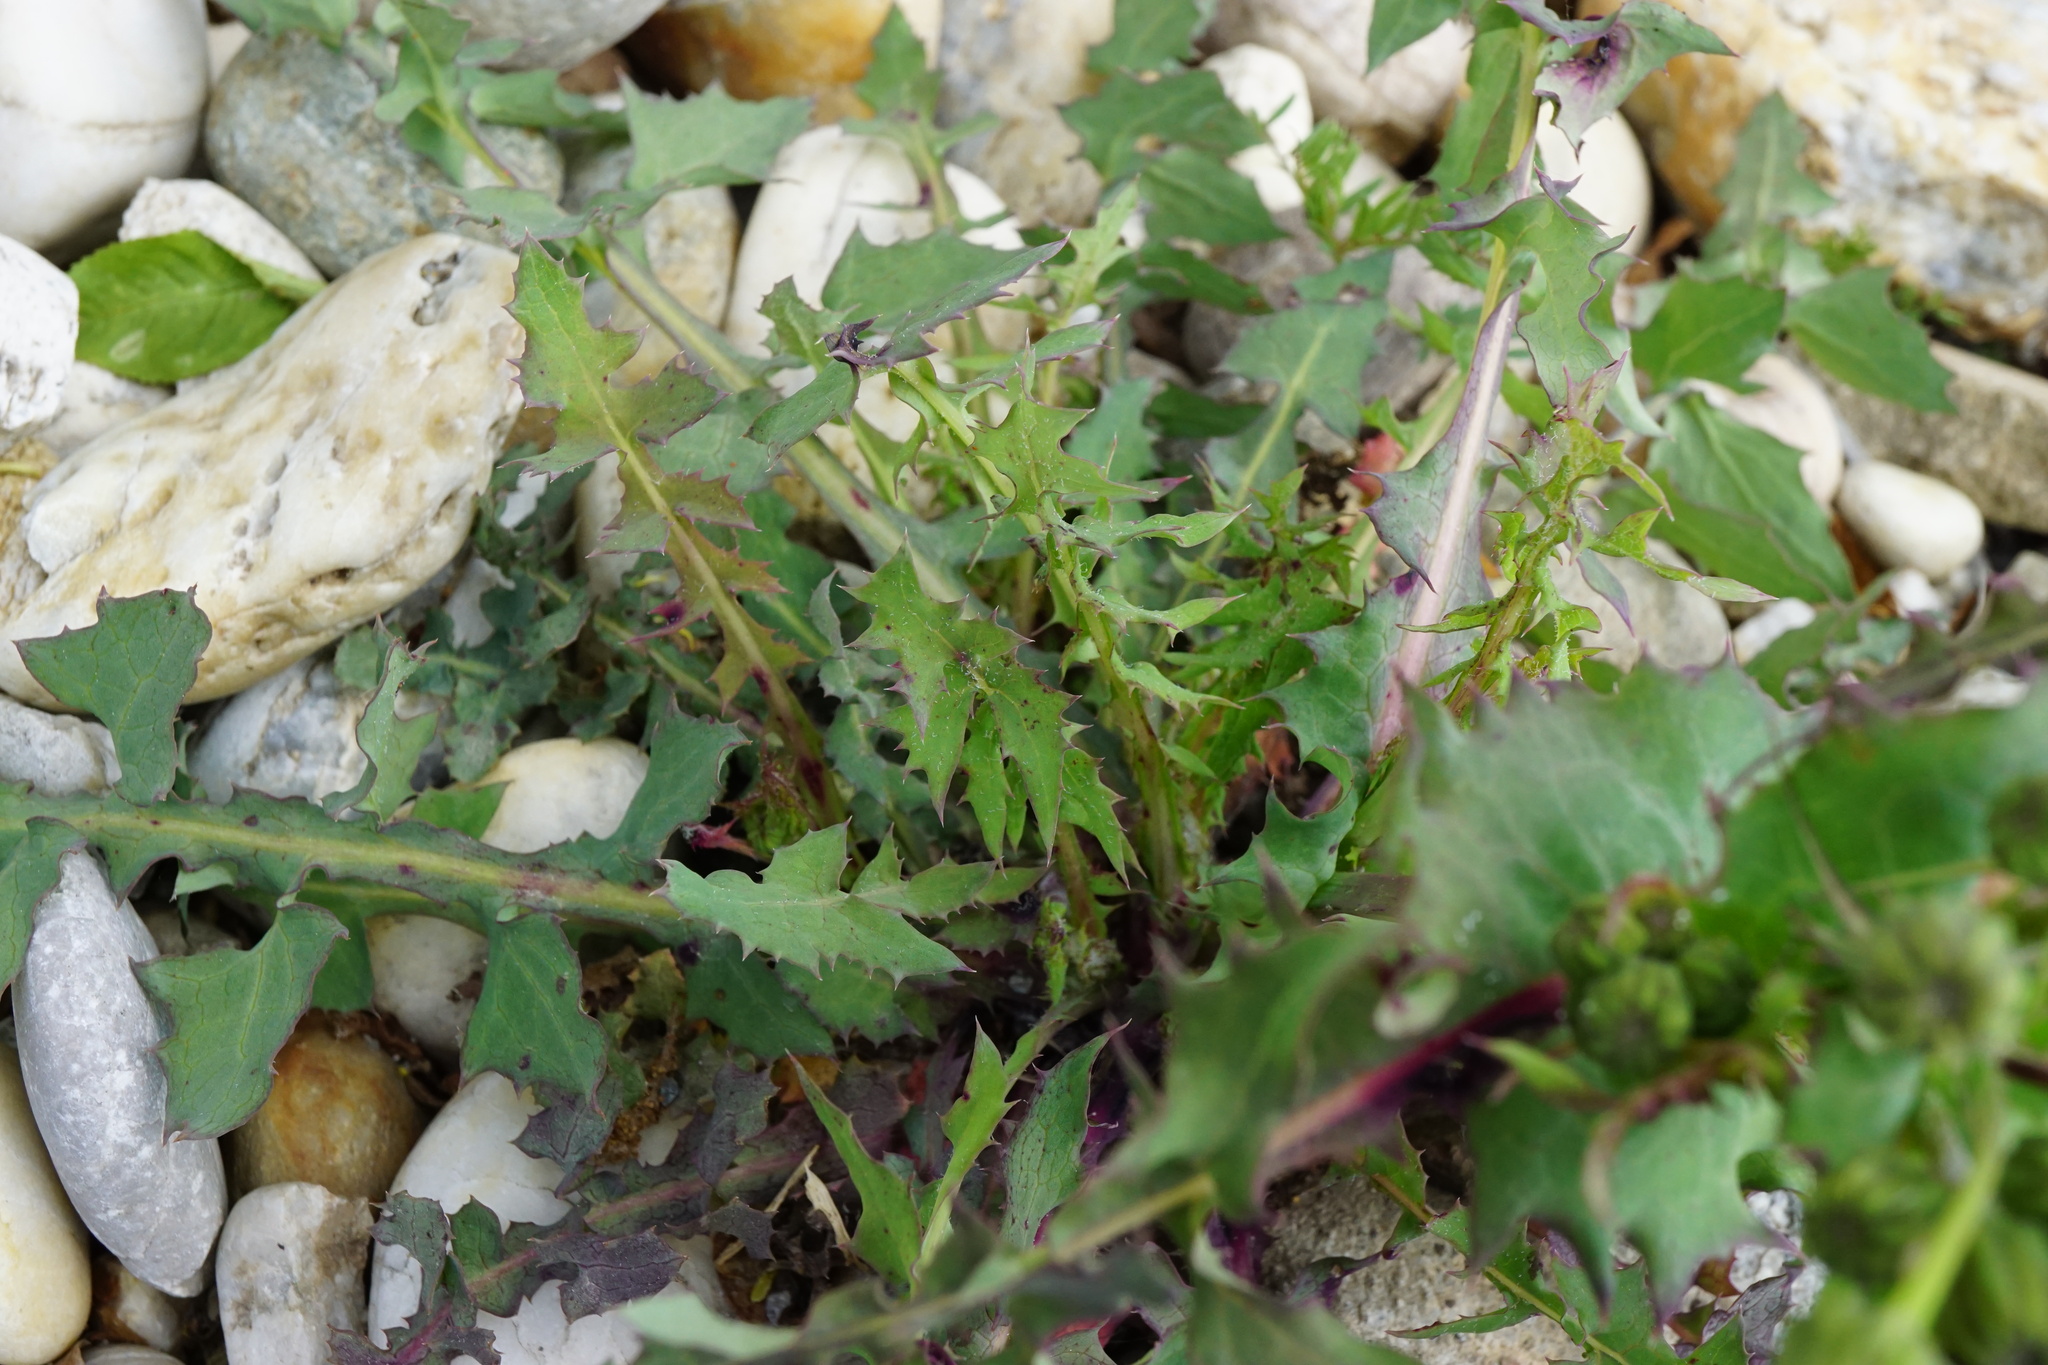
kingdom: Plantae
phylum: Tracheophyta
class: Magnoliopsida
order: Asterales
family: Asteraceae
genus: Sonchus
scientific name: Sonchus oleraceus
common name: Common sowthistle
